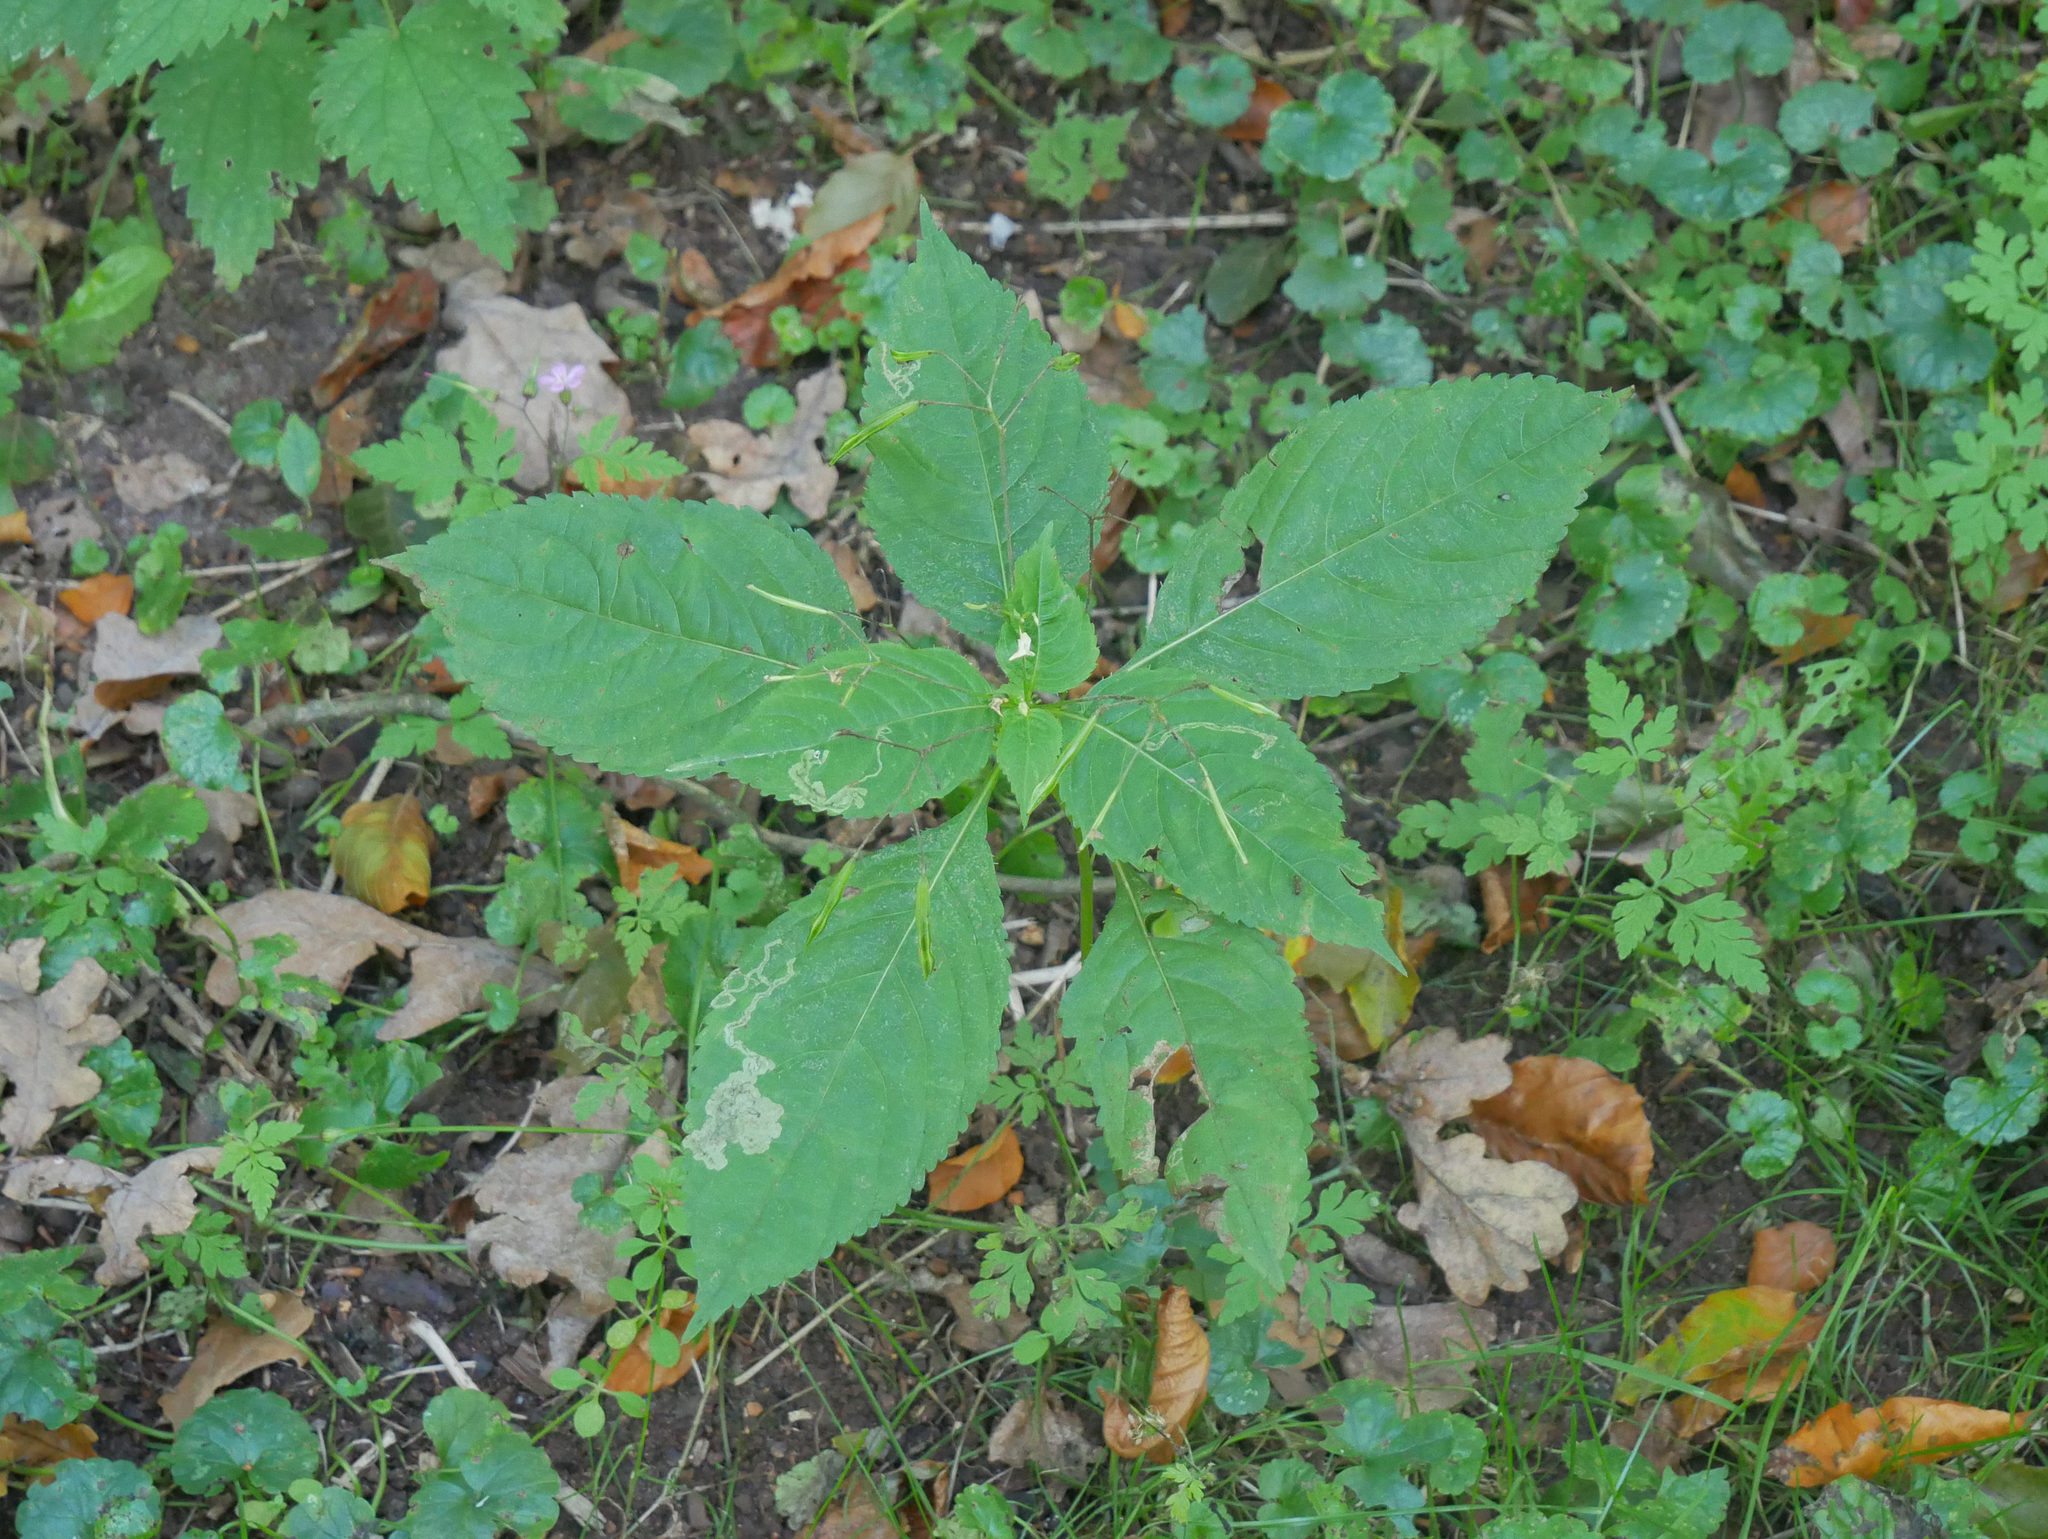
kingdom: Plantae
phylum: Tracheophyta
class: Magnoliopsida
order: Ericales
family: Balsaminaceae
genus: Impatiens
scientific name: Impatiens parviflora
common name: Small balsam
